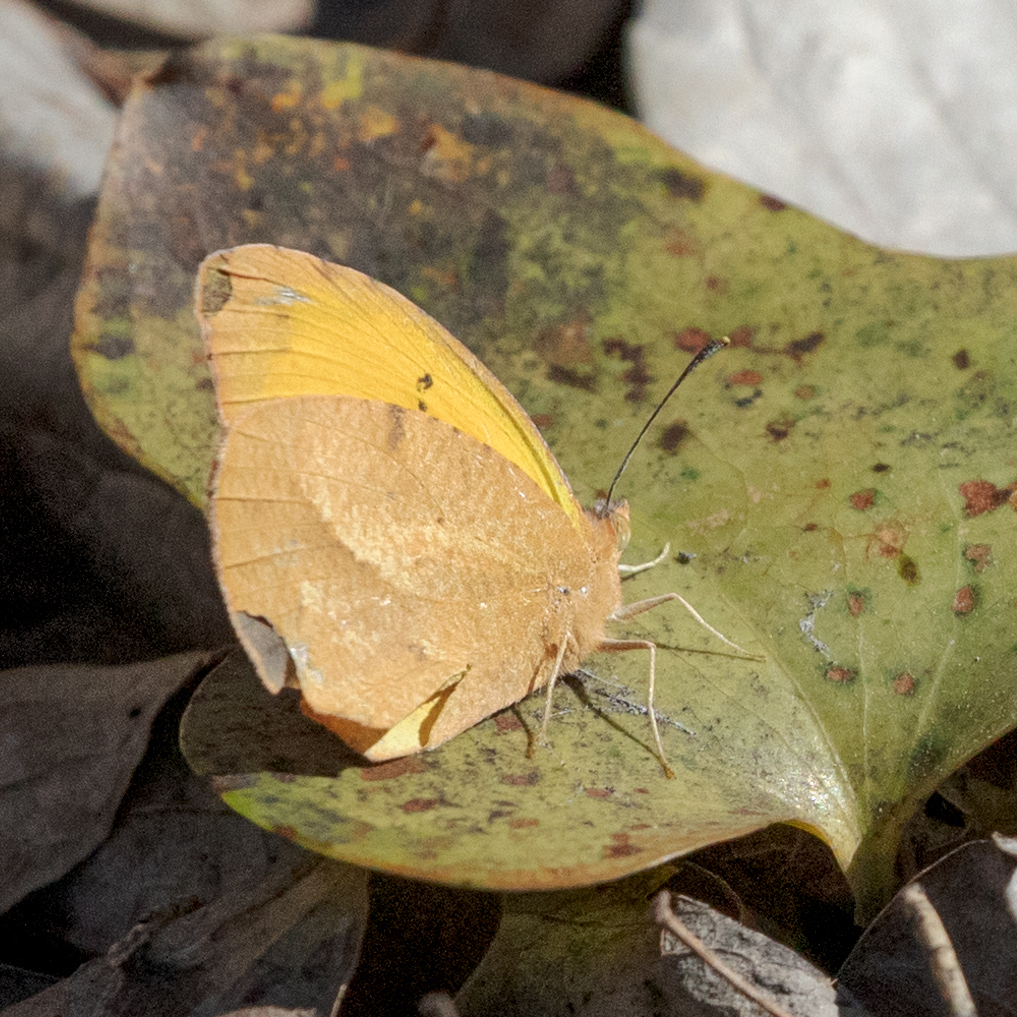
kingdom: Animalia
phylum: Arthropoda
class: Insecta
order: Lepidoptera
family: Pieridae
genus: Abaeis
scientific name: Abaeis nicippe
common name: Sleepy orange
